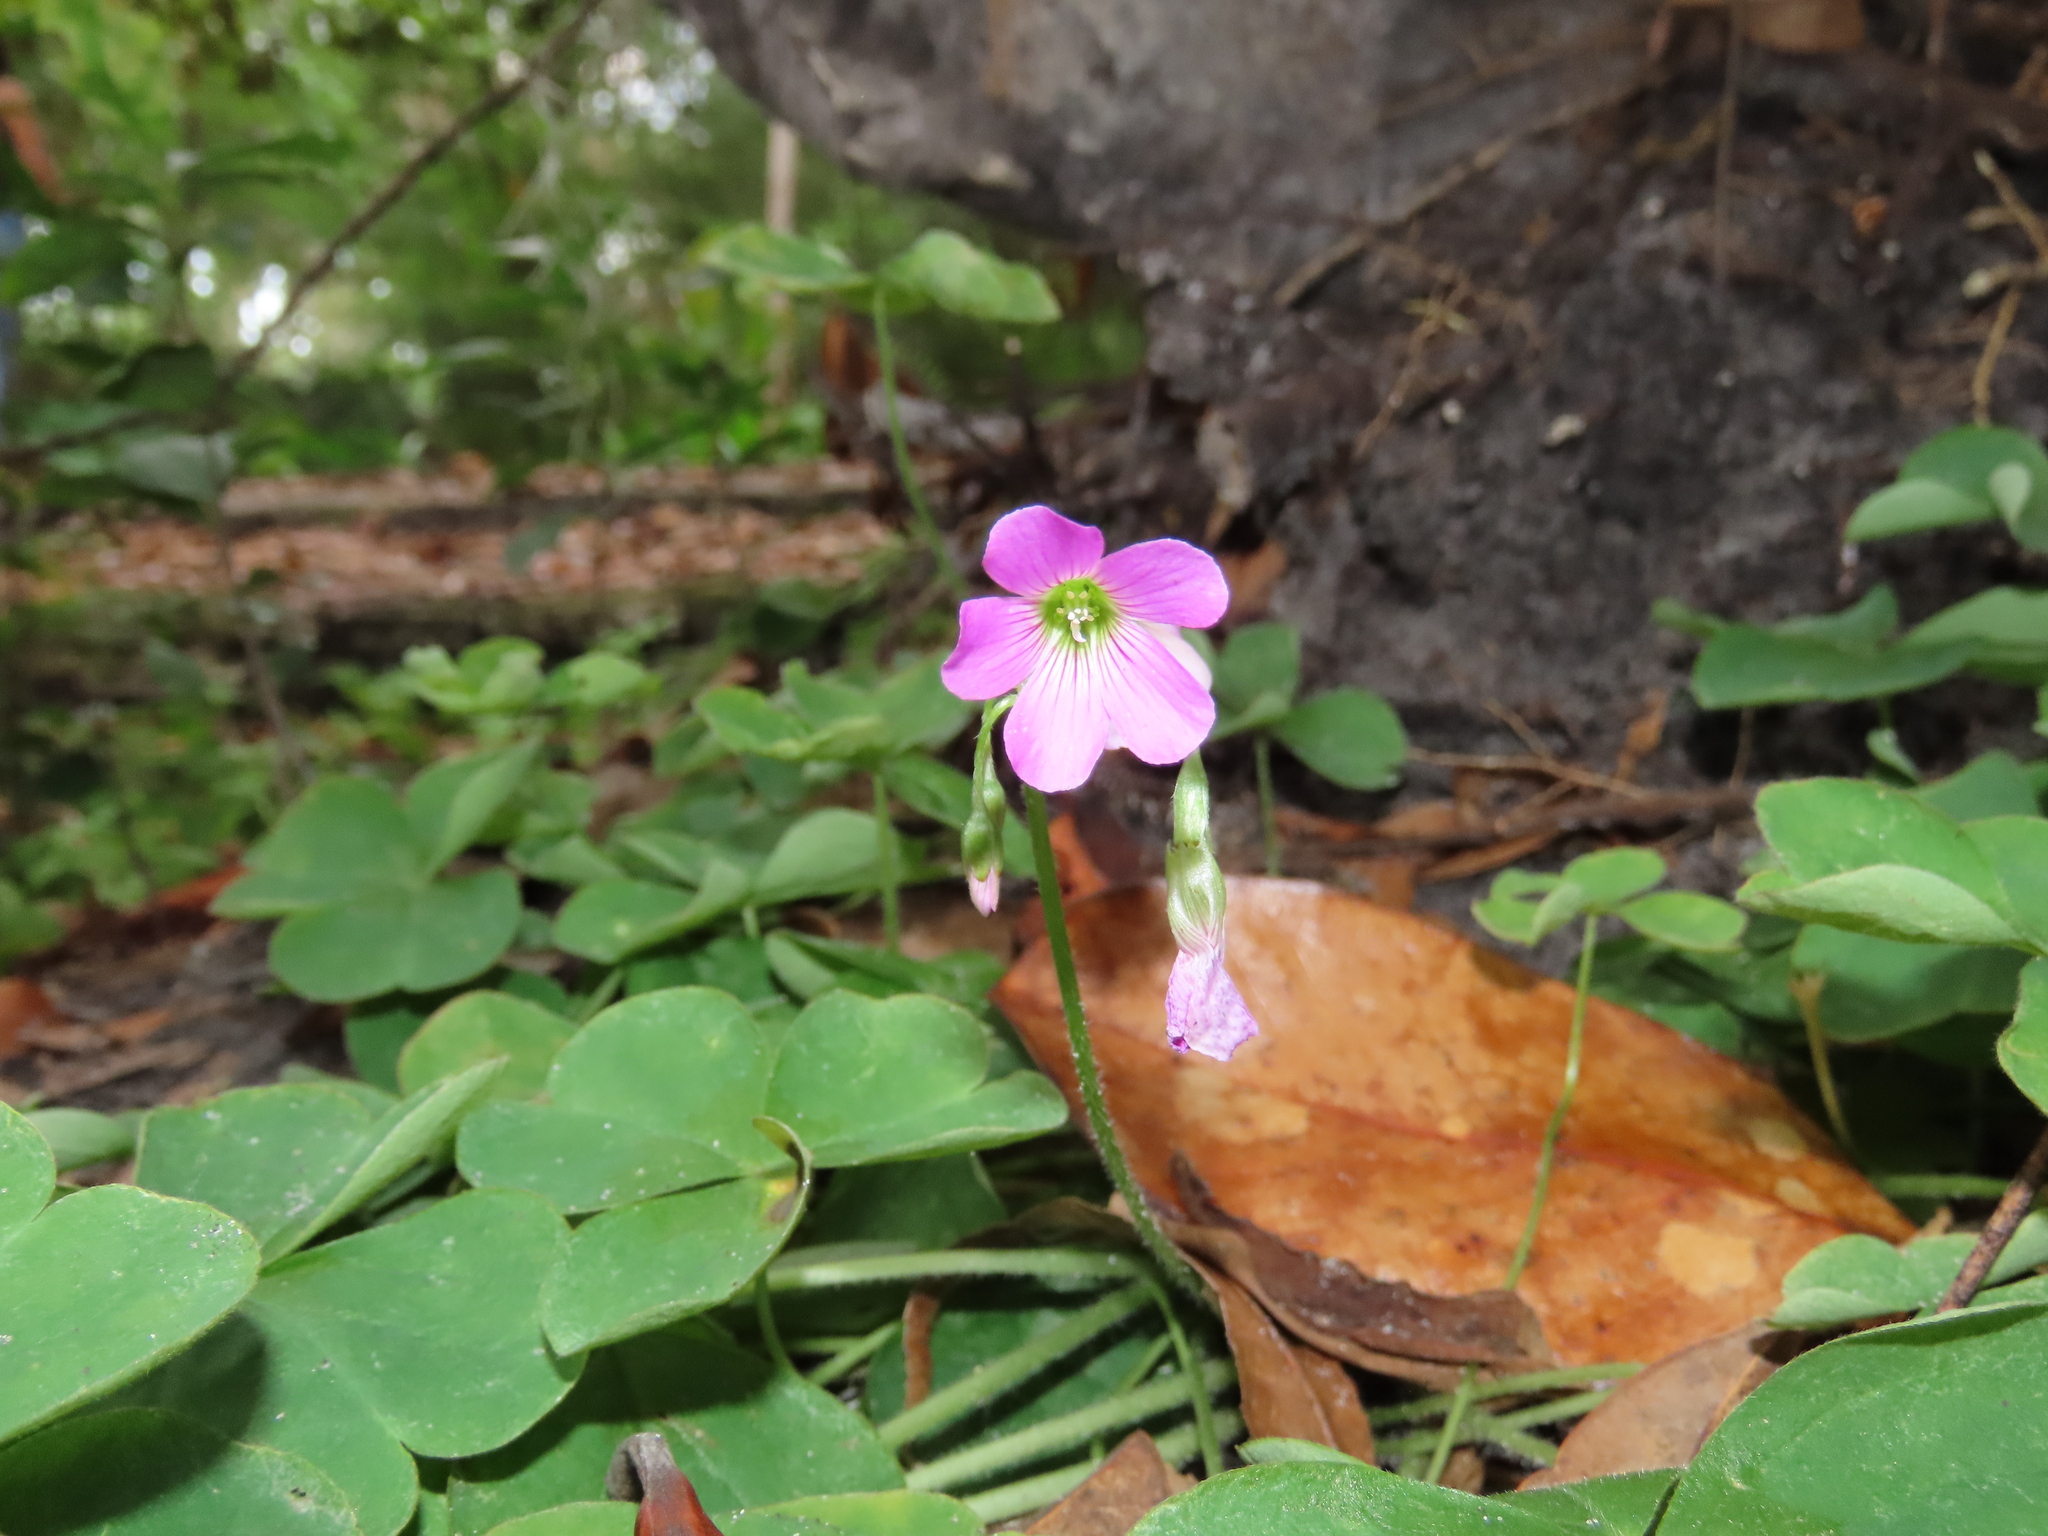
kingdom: Plantae
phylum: Tracheophyta
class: Magnoliopsida
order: Oxalidales
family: Oxalidaceae
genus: Oxalis
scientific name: Oxalis debilis
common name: Large-flowered pink-sorrel
